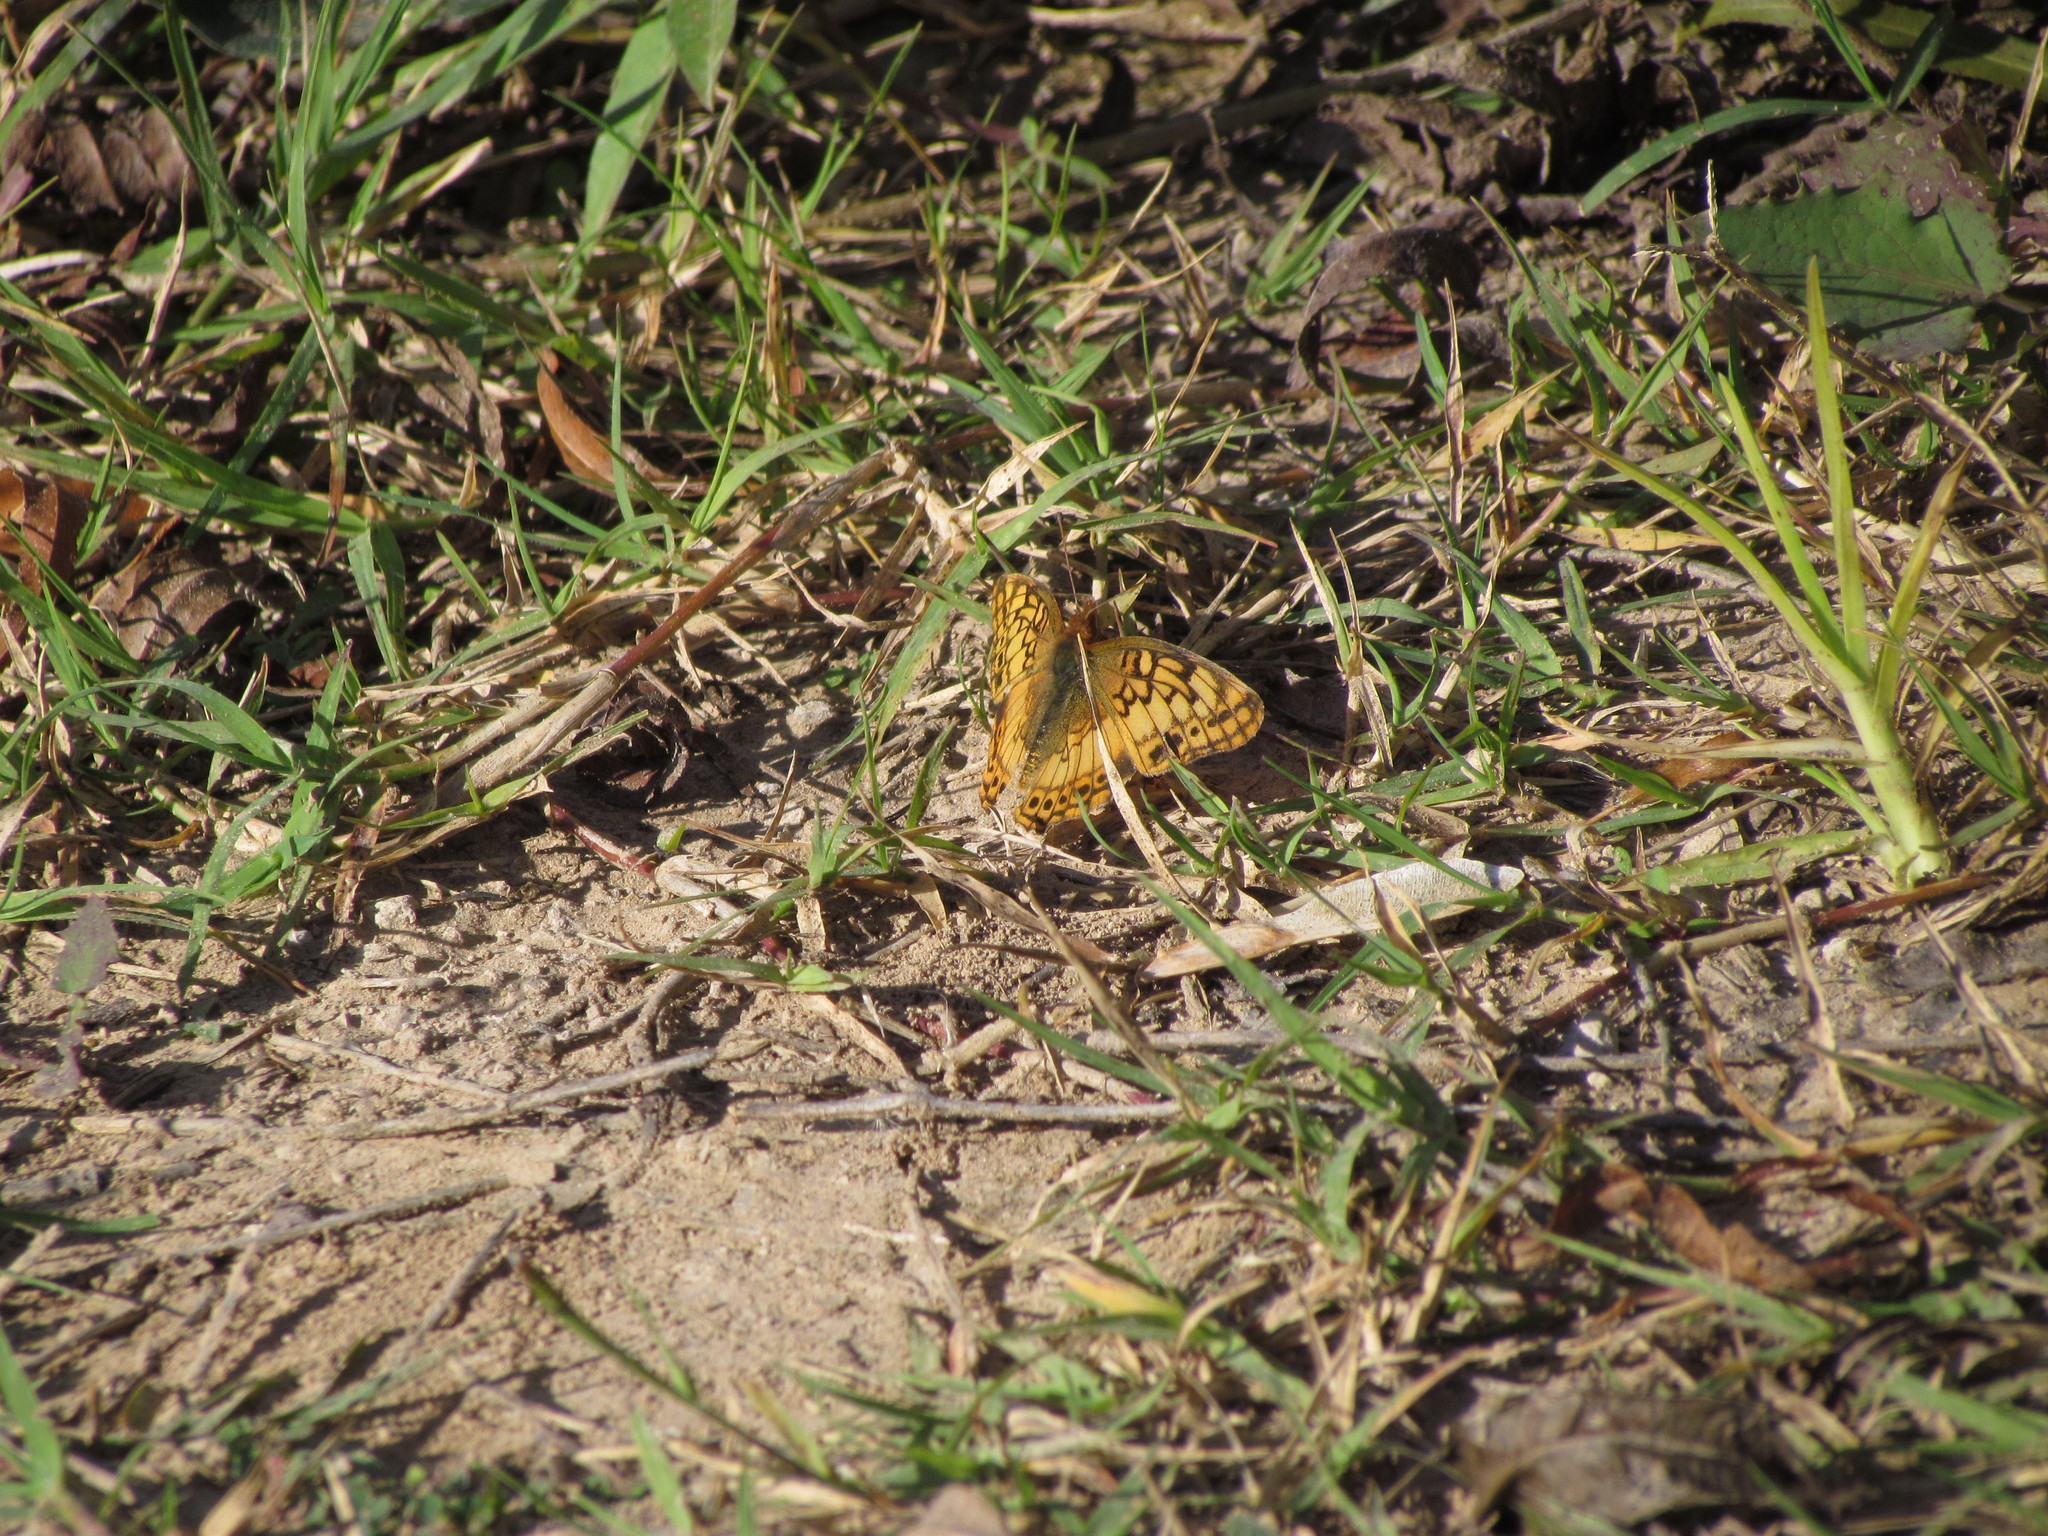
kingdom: Animalia
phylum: Arthropoda
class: Insecta
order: Lepidoptera
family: Nymphalidae
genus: Euptoieta
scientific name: Euptoieta hortensia
